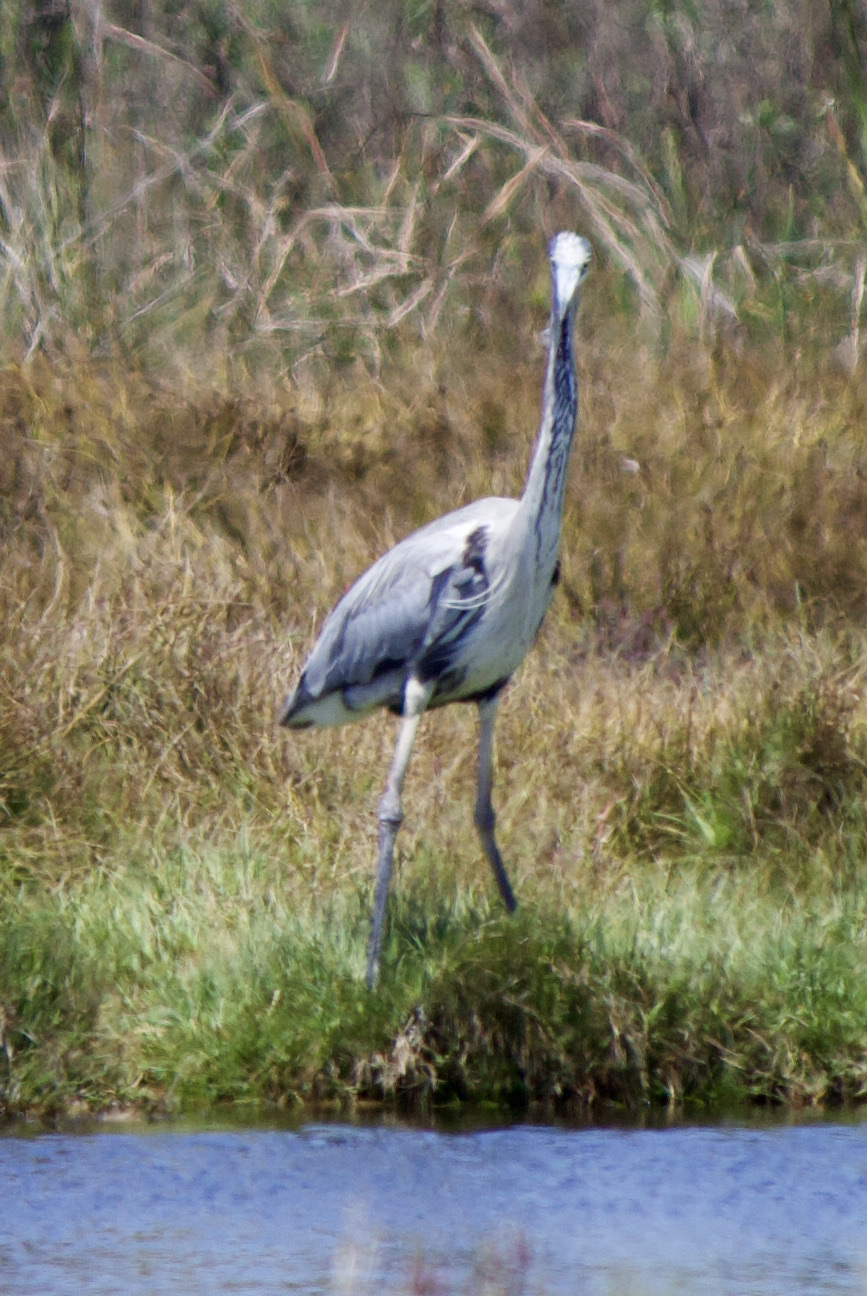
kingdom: Animalia
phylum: Chordata
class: Aves
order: Pelecaniformes
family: Ardeidae
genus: Ardea
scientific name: Ardea cocoi
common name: Cocoi heron
